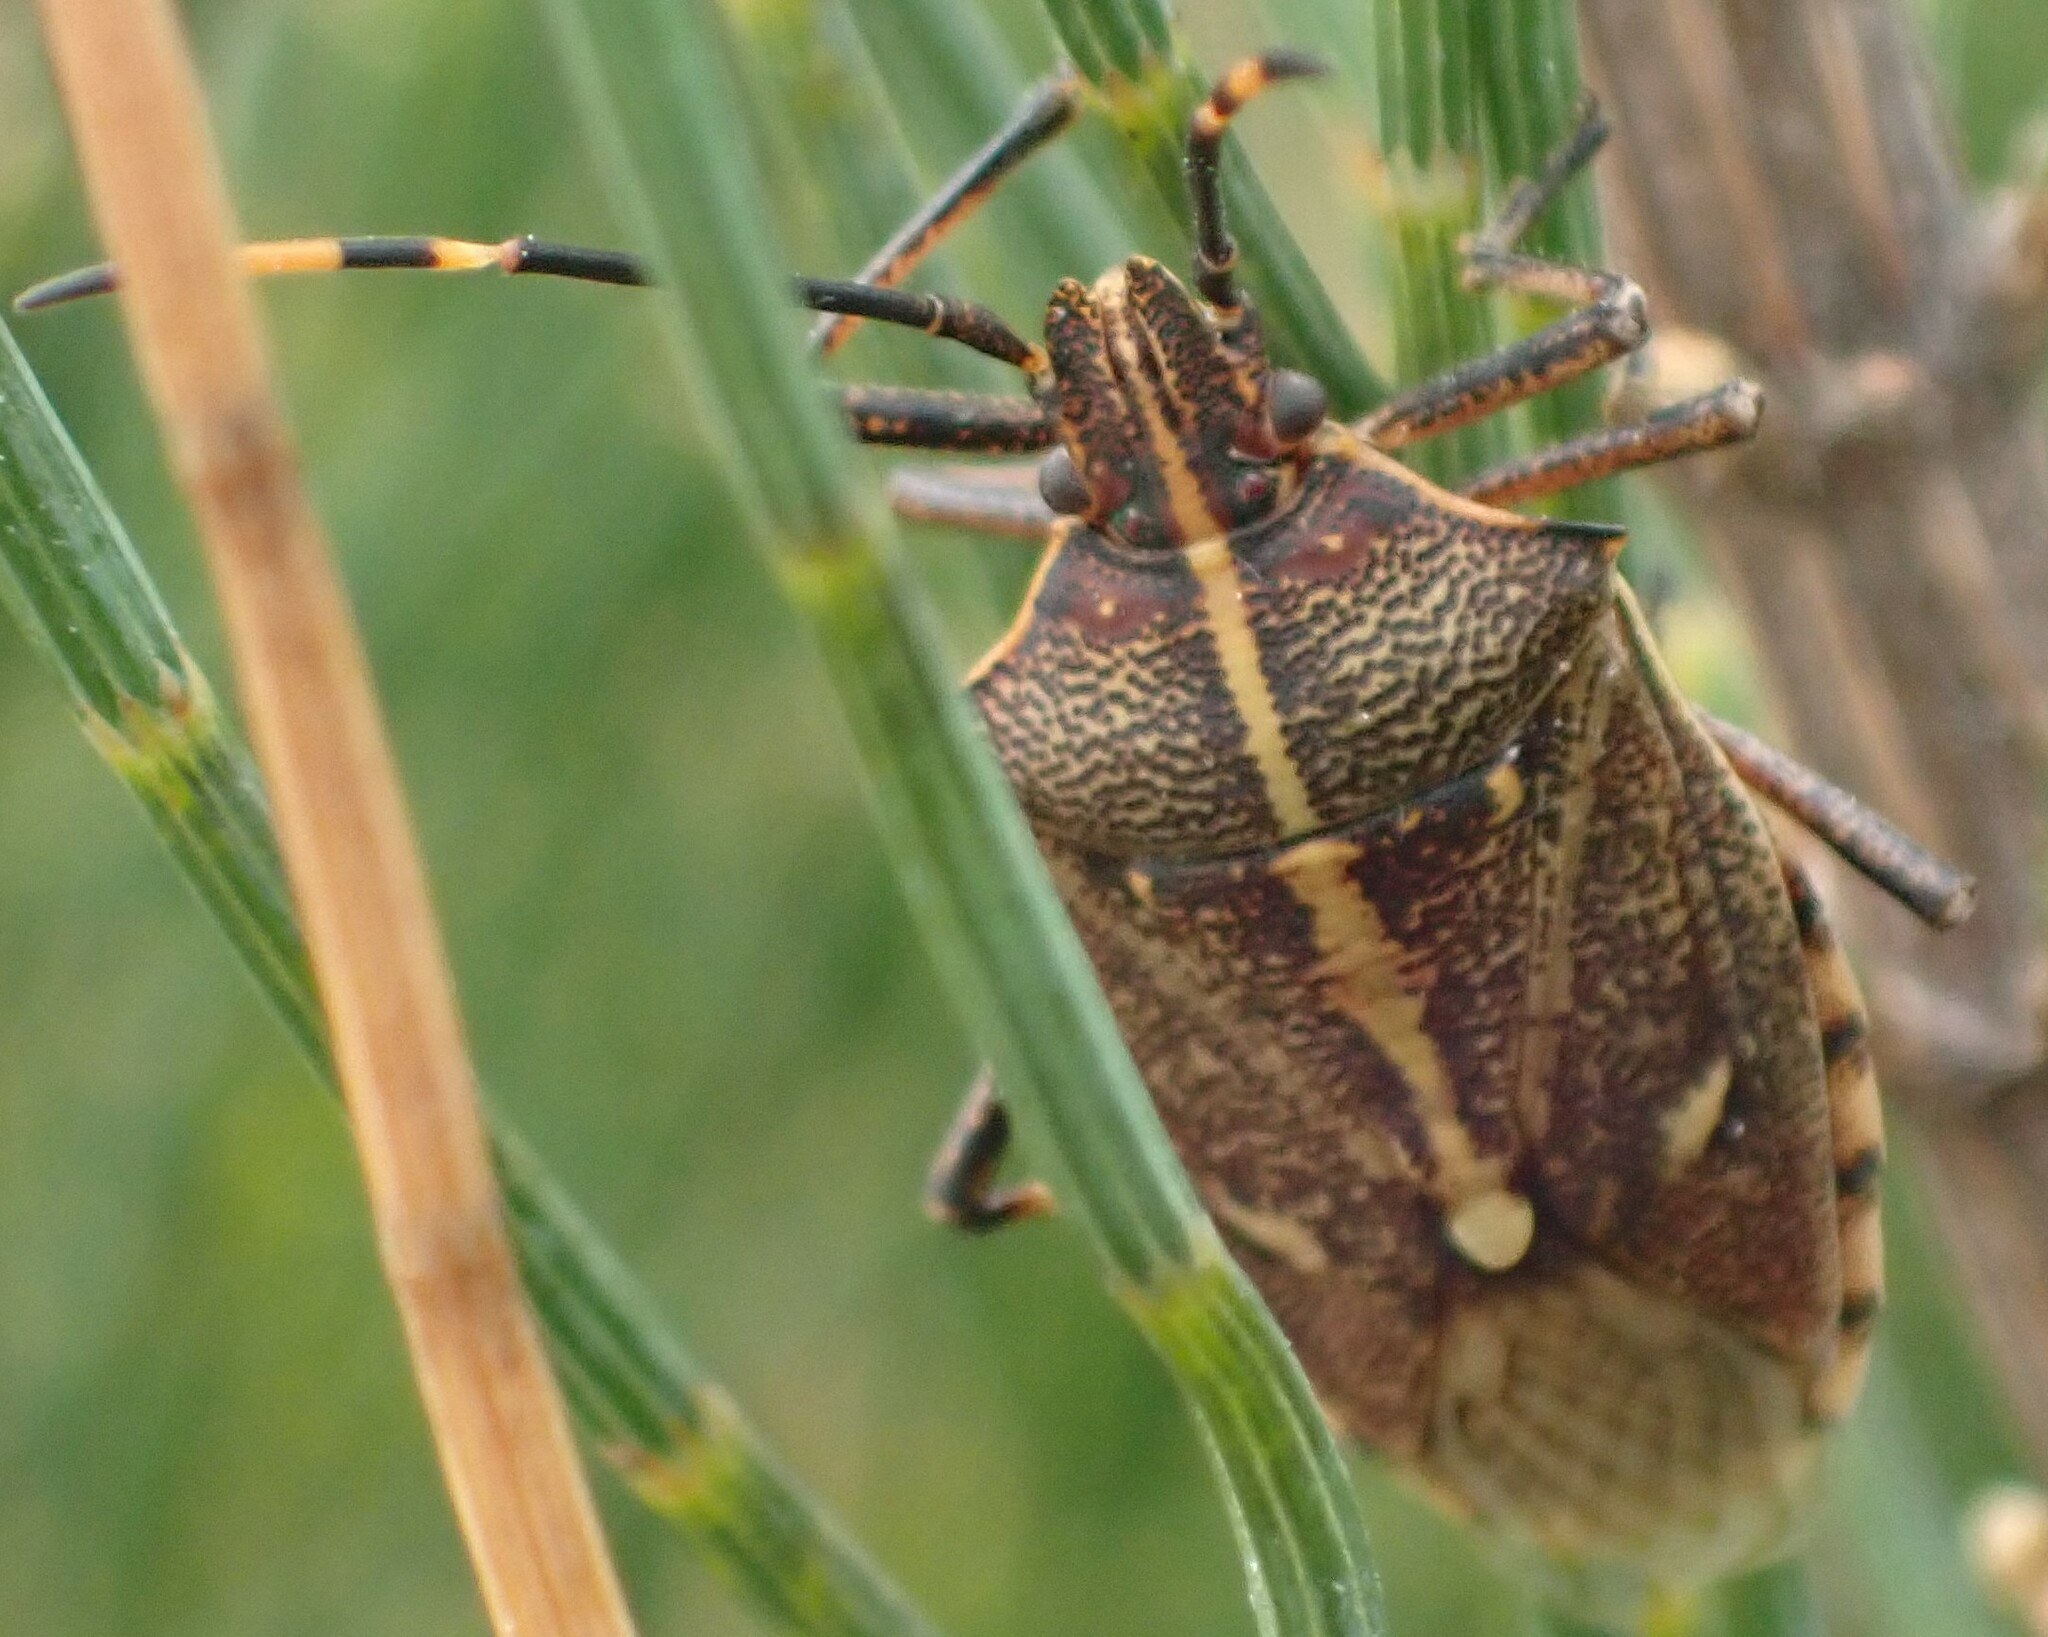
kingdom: Animalia
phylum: Arthropoda
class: Insecta
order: Hemiptera
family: Pentatomidae
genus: Omyta
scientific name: Omyta centrolineata
